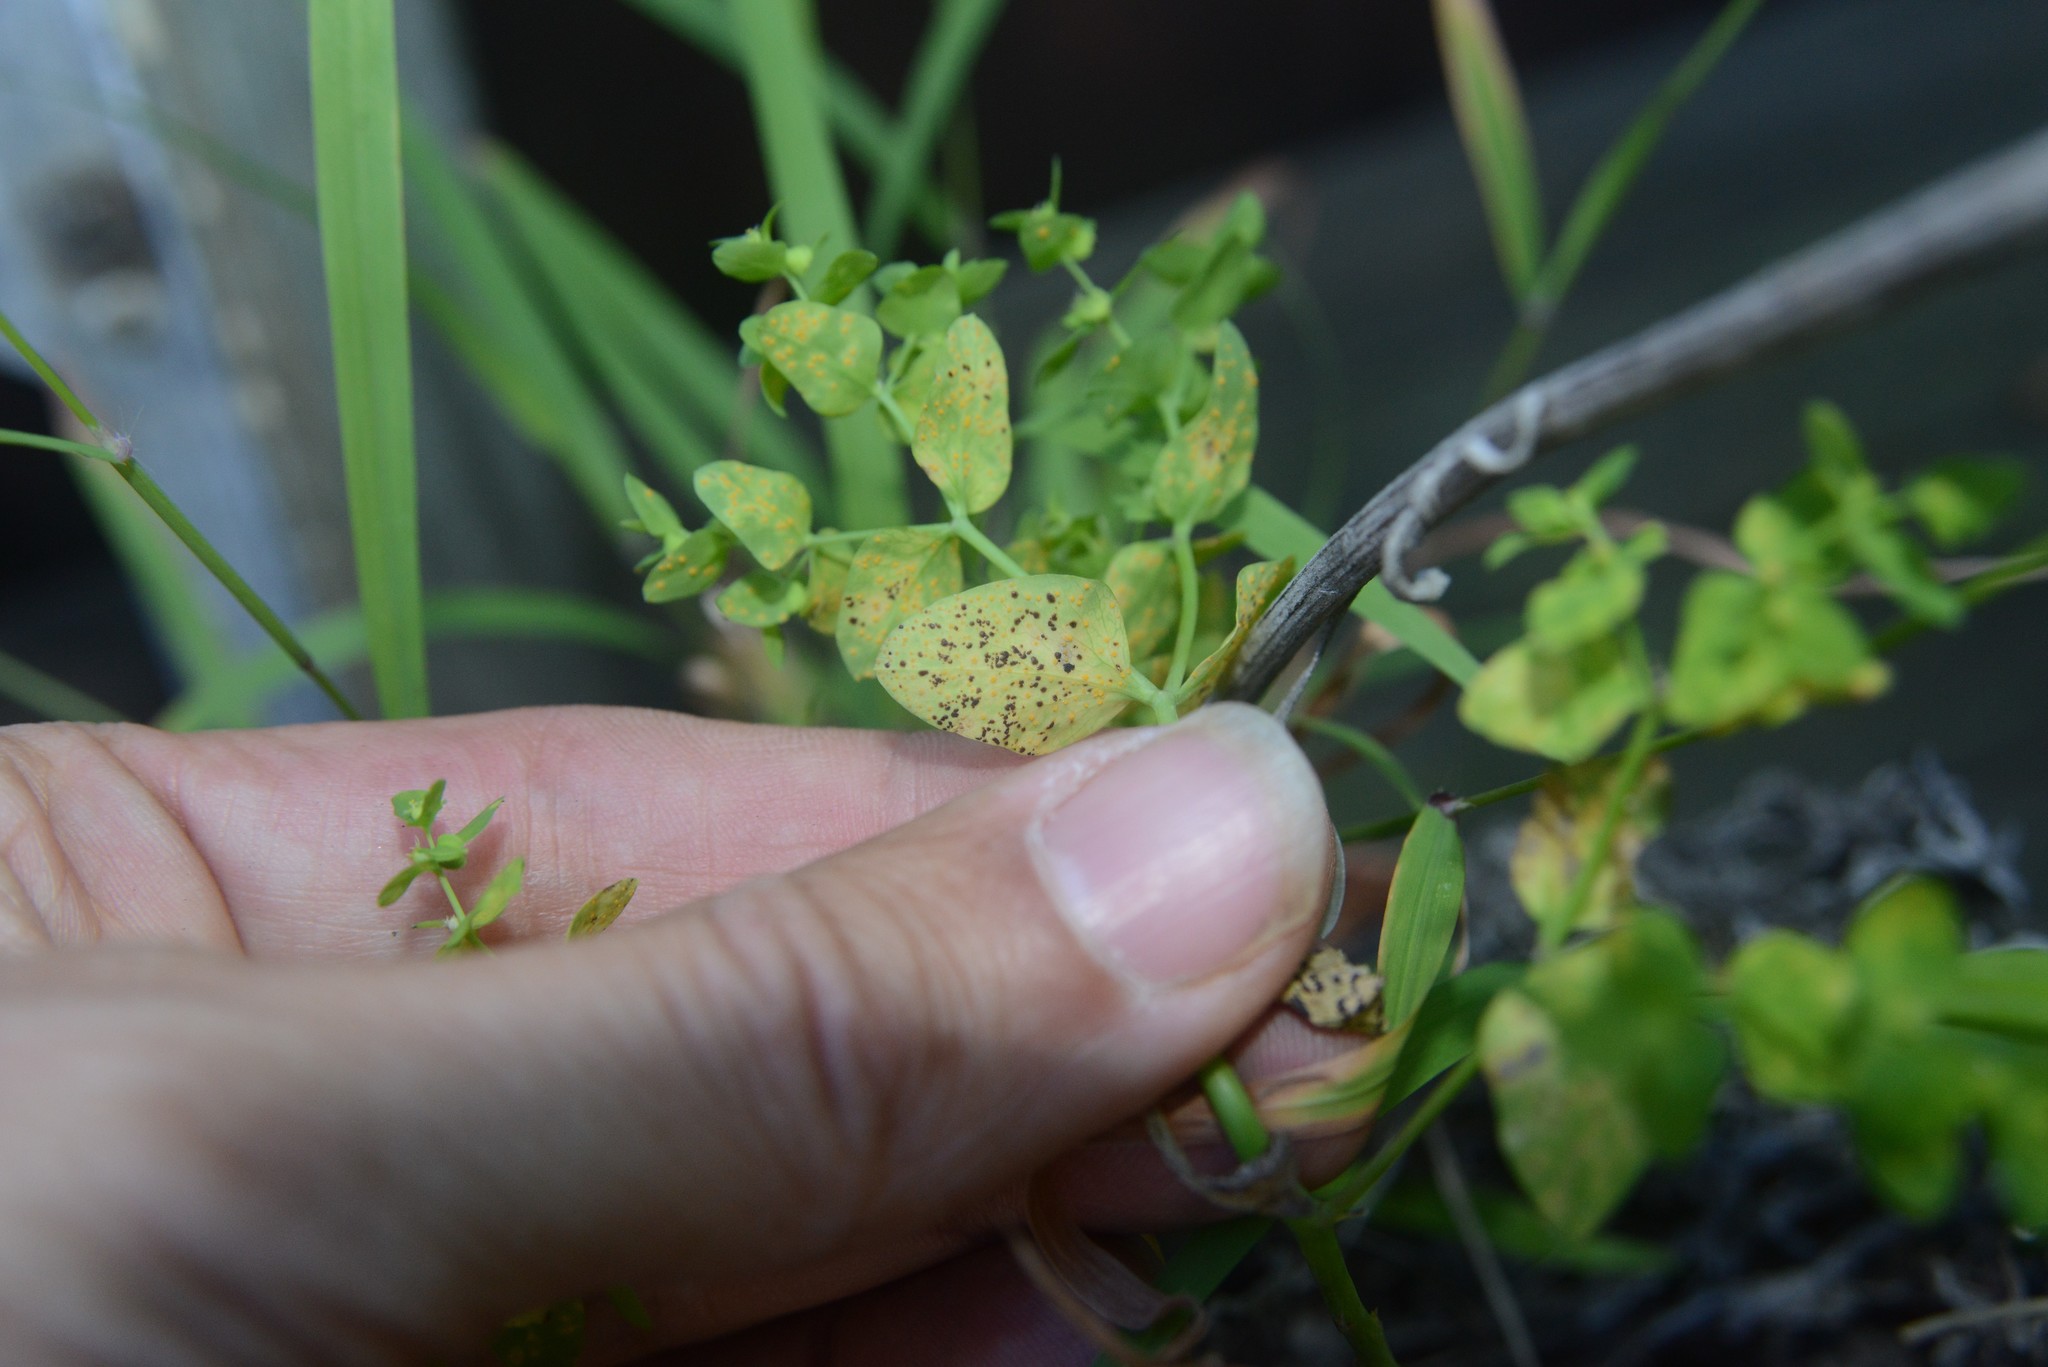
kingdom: Fungi
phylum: Basidiomycota
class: Pucciniomycetes
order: Pucciniales
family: Melampsoraceae
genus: Melampsora
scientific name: Melampsora euphorbiae
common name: Spurge rust
